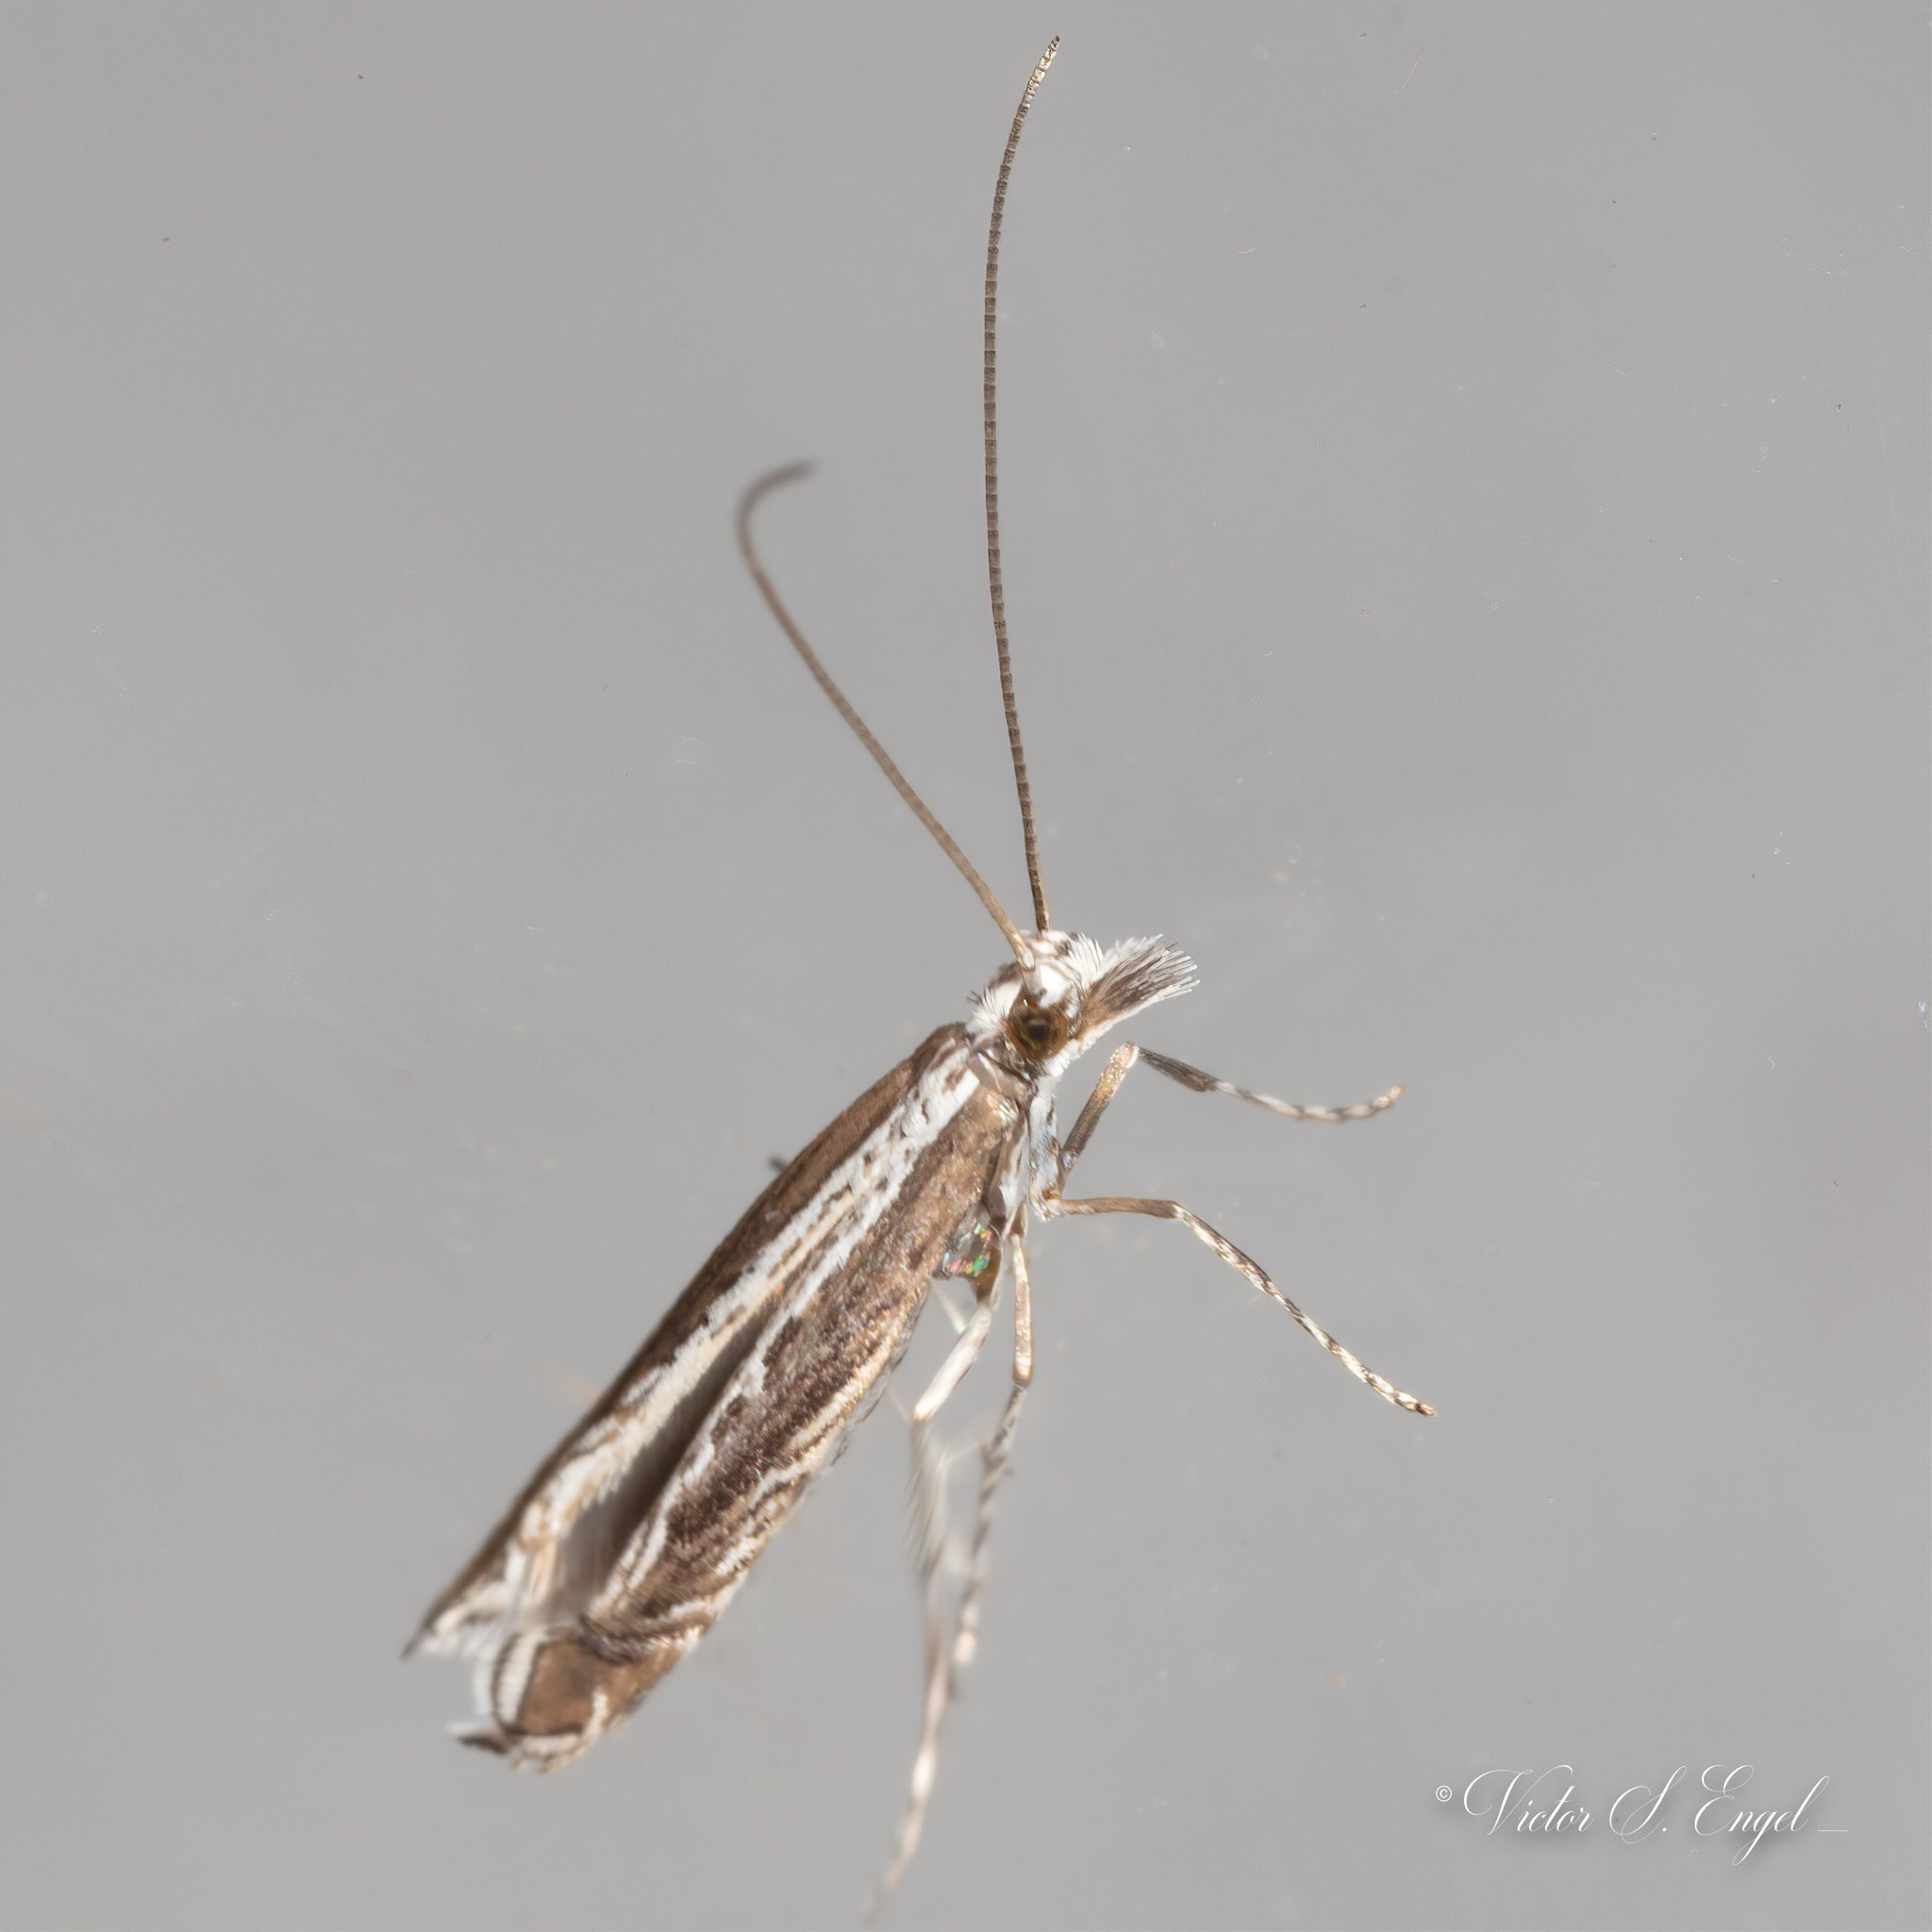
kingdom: Plantae
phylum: Rhodophyta
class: Florideophyceae
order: Gracilariales
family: Gracilariaceae
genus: Gracilaria
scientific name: Gracilaria
